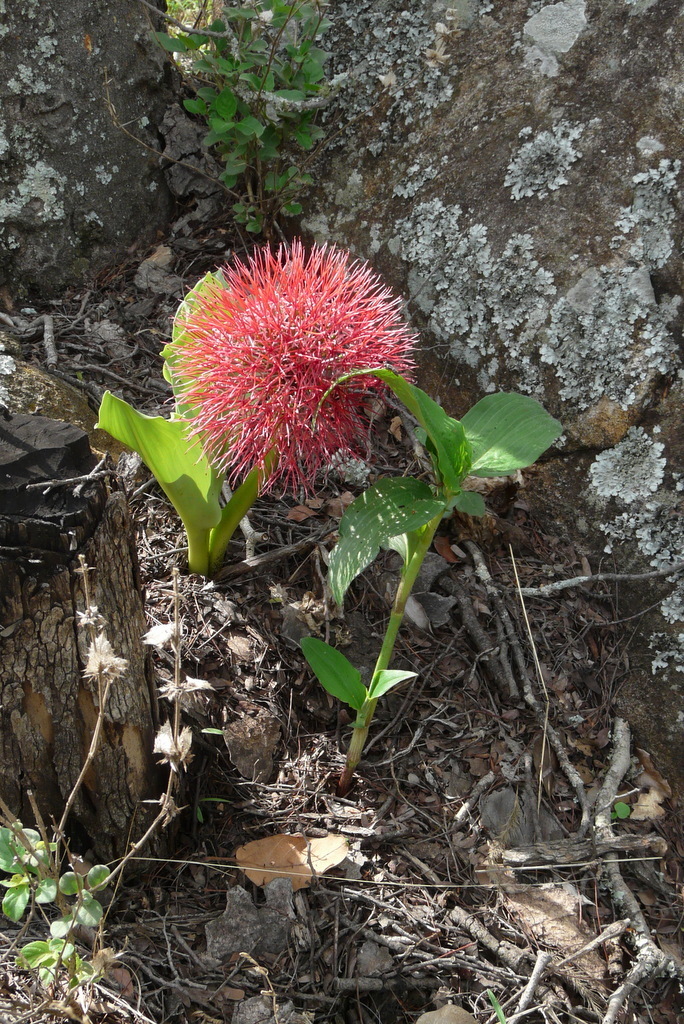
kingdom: Plantae
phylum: Tracheophyta
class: Liliopsida
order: Asparagales
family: Amaryllidaceae
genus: Scadoxus
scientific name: Scadoxus multiflorus
